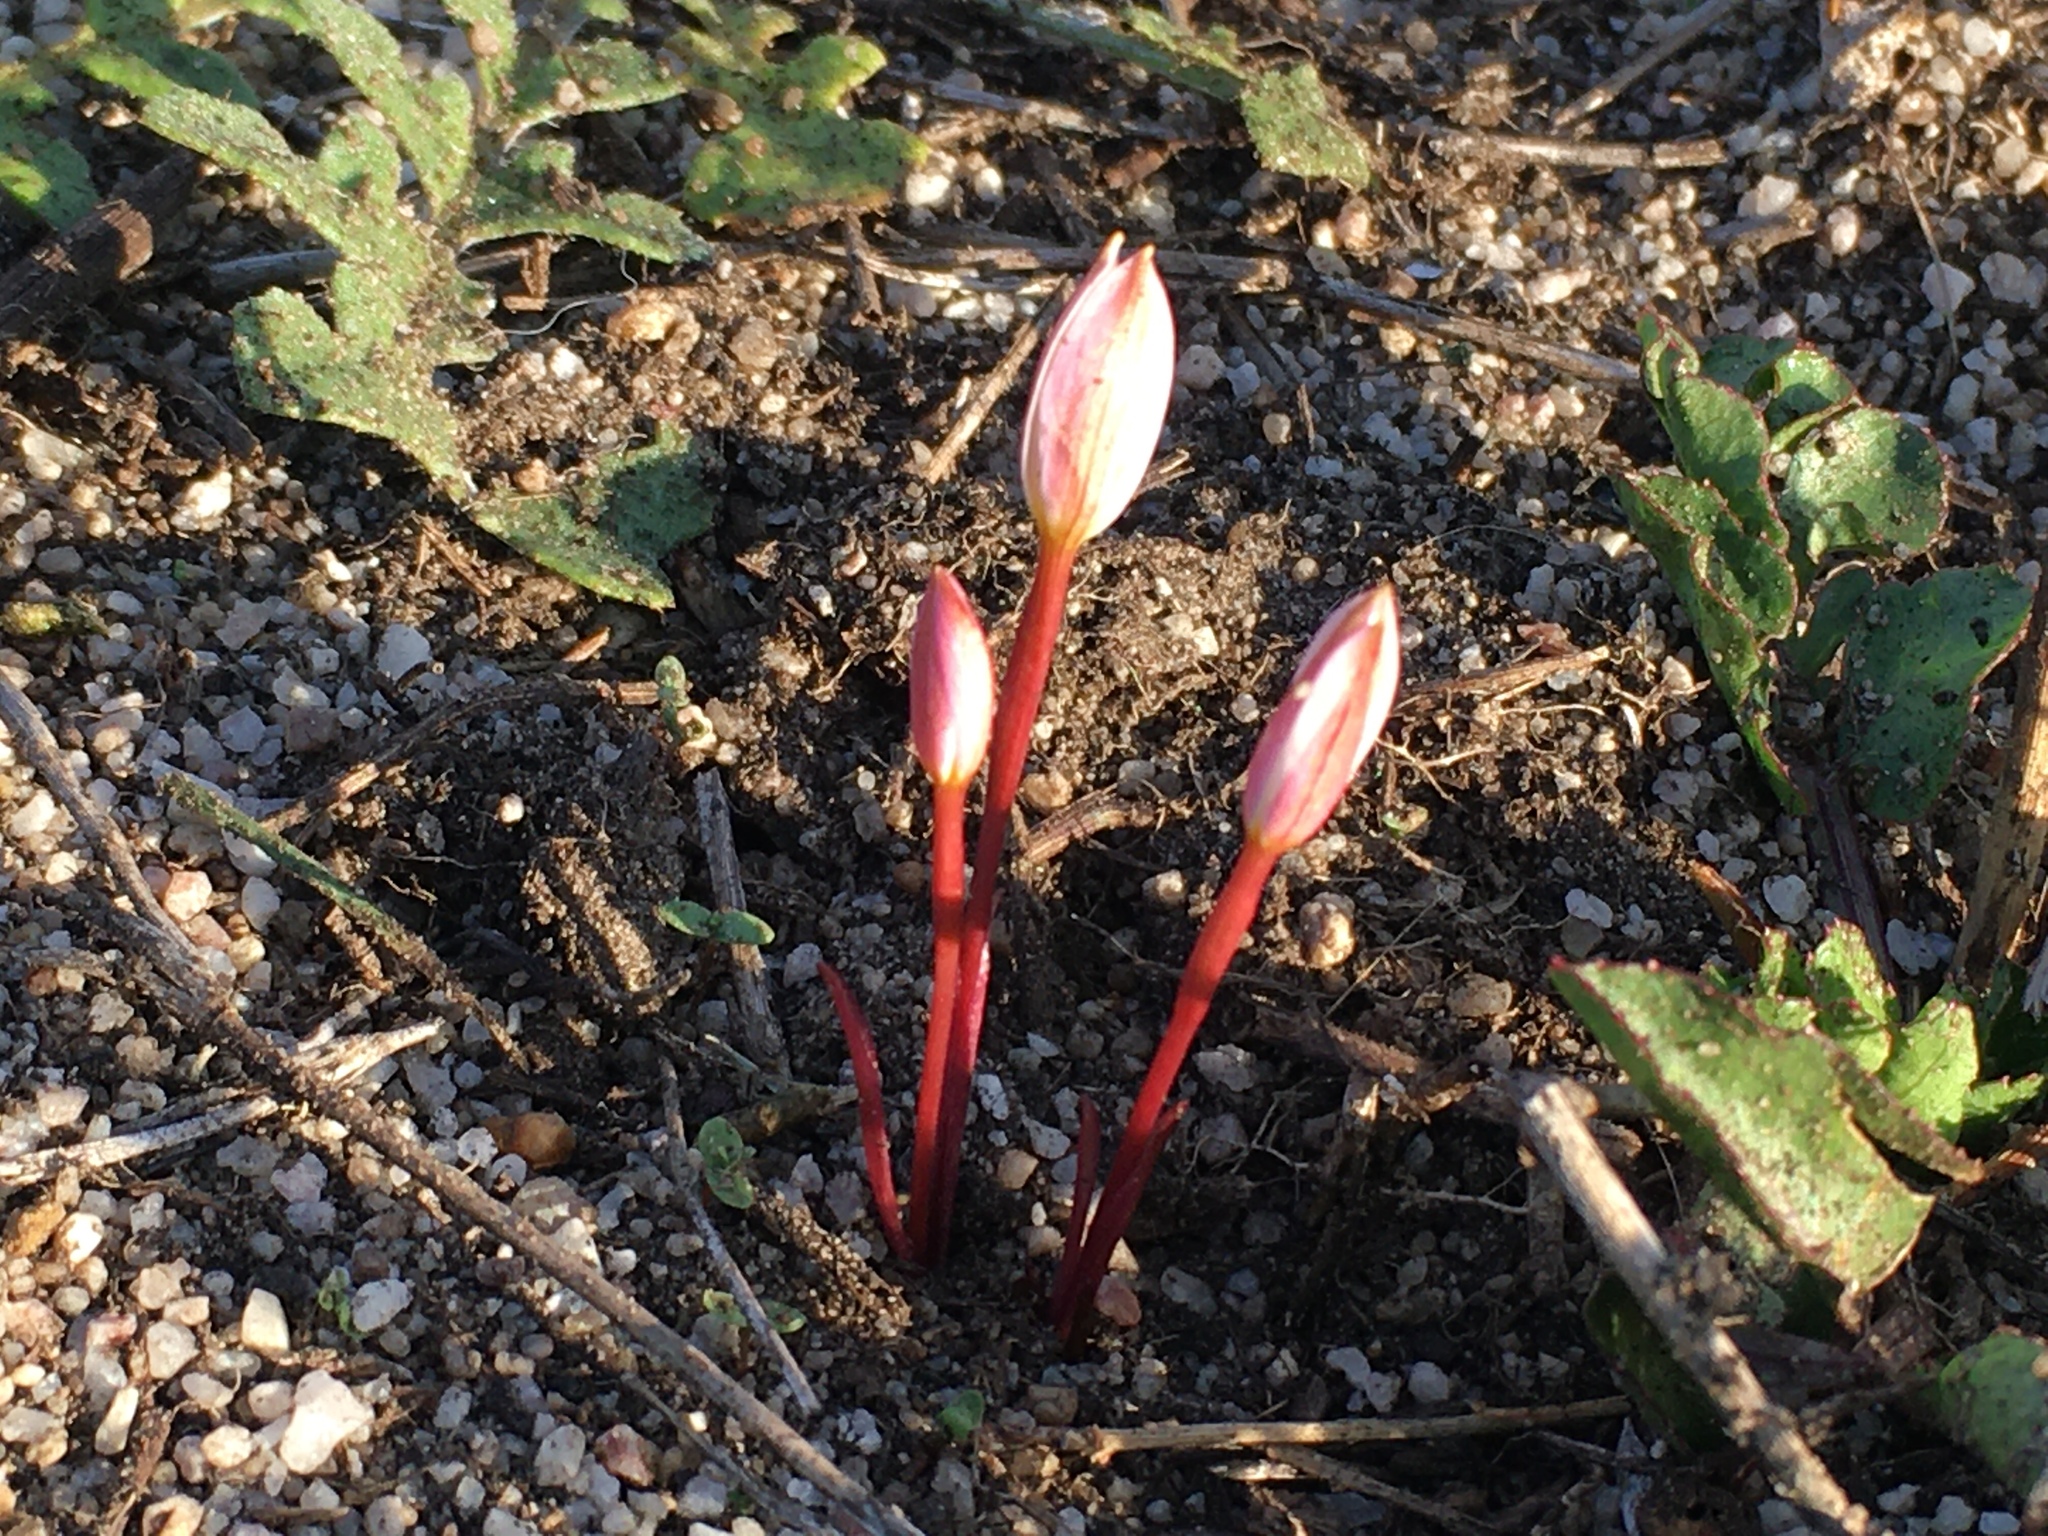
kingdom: Plantae
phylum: Tracheophyta
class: Liliopsida
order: Asparagales
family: Hypoxidaceae
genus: Pauridia
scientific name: Pauridia alba
